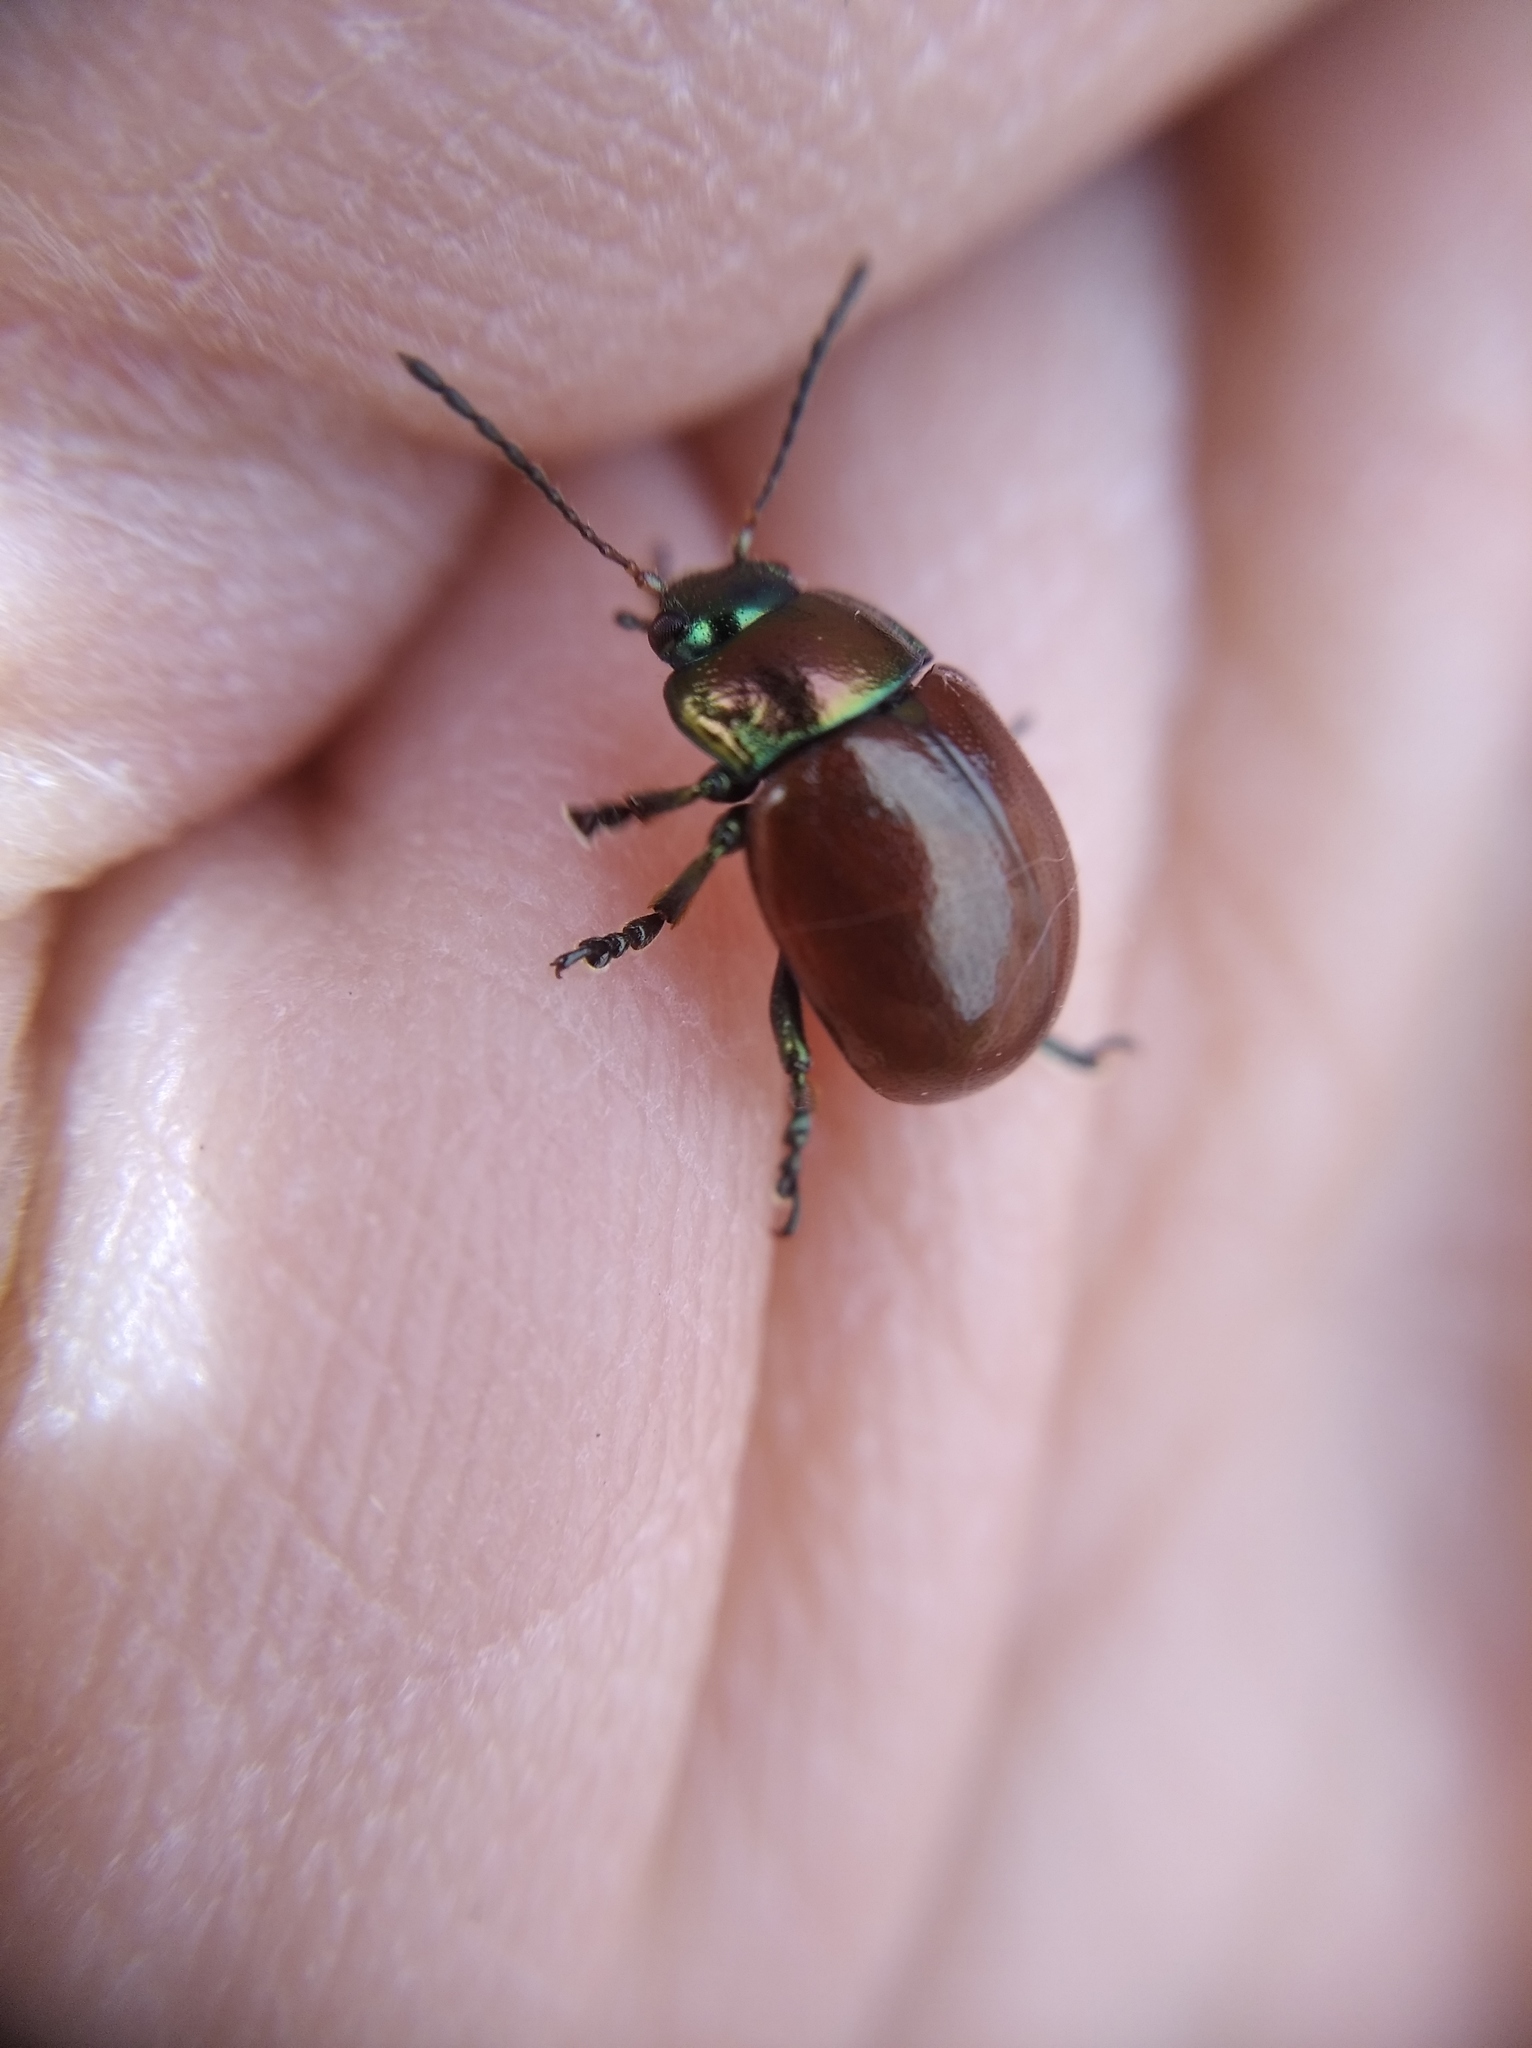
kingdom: Animalia
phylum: Arthropoda
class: Insecta
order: Coleoptera
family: Chrysomelidae
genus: Chrysomela
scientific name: Chrysomela polita
